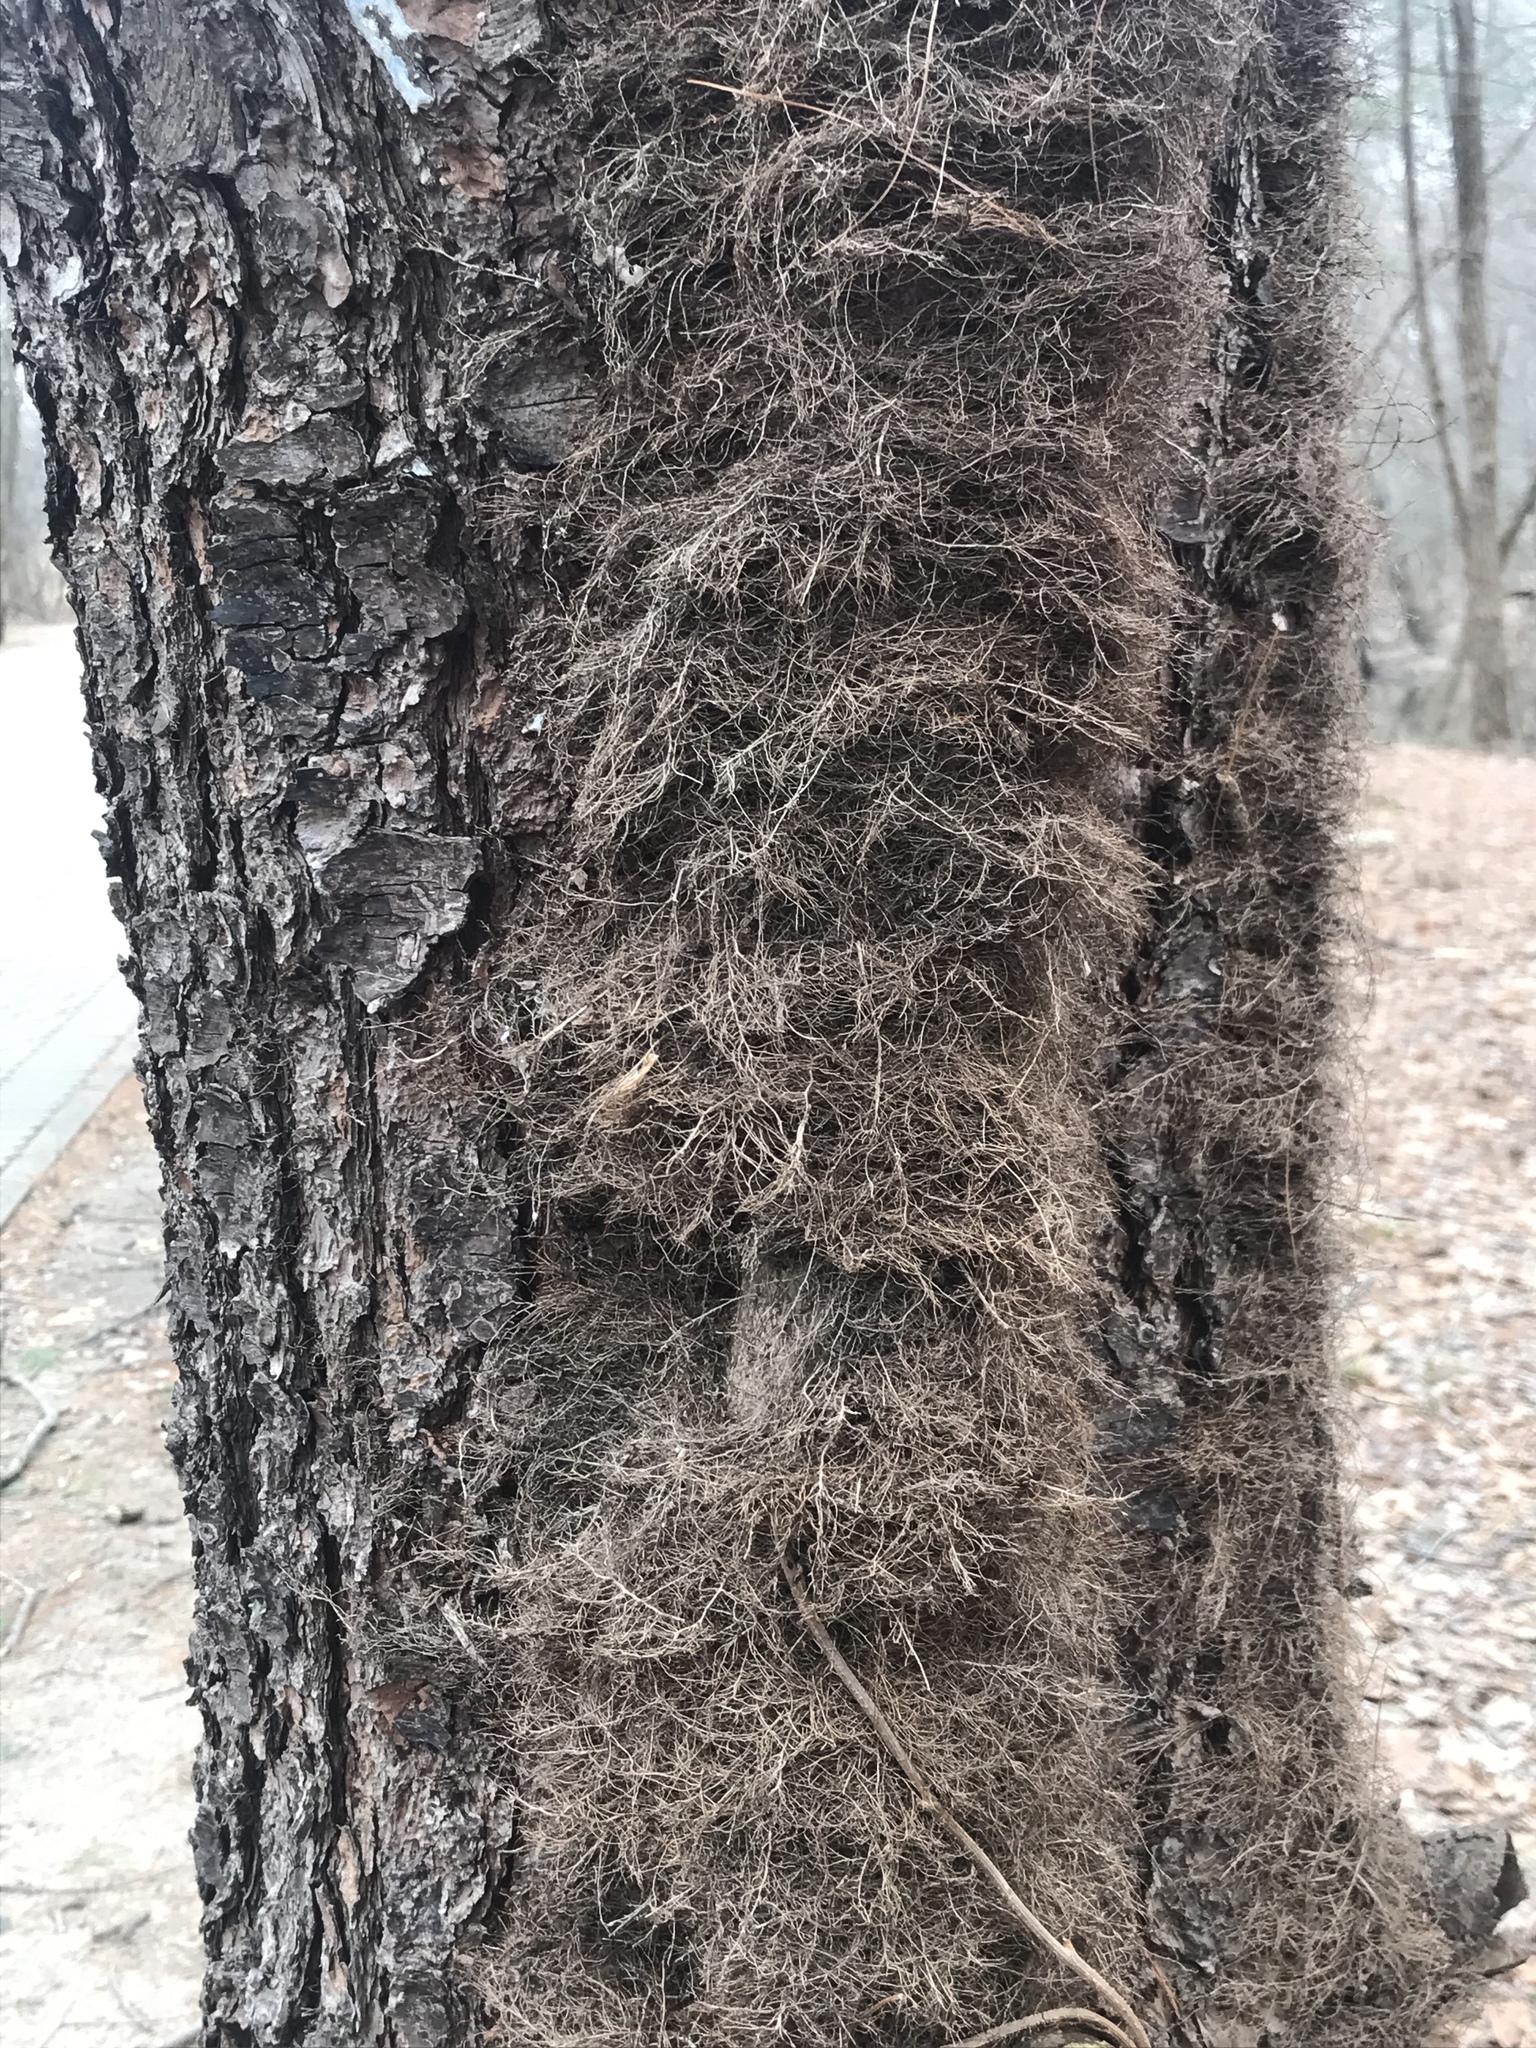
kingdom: Plantae
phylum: Tracheophyta
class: Magnoliopsida
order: Sapindales
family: Anacardiaceae
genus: Toxicodendron
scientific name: Toxicodendron radicans
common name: Poison ivy
